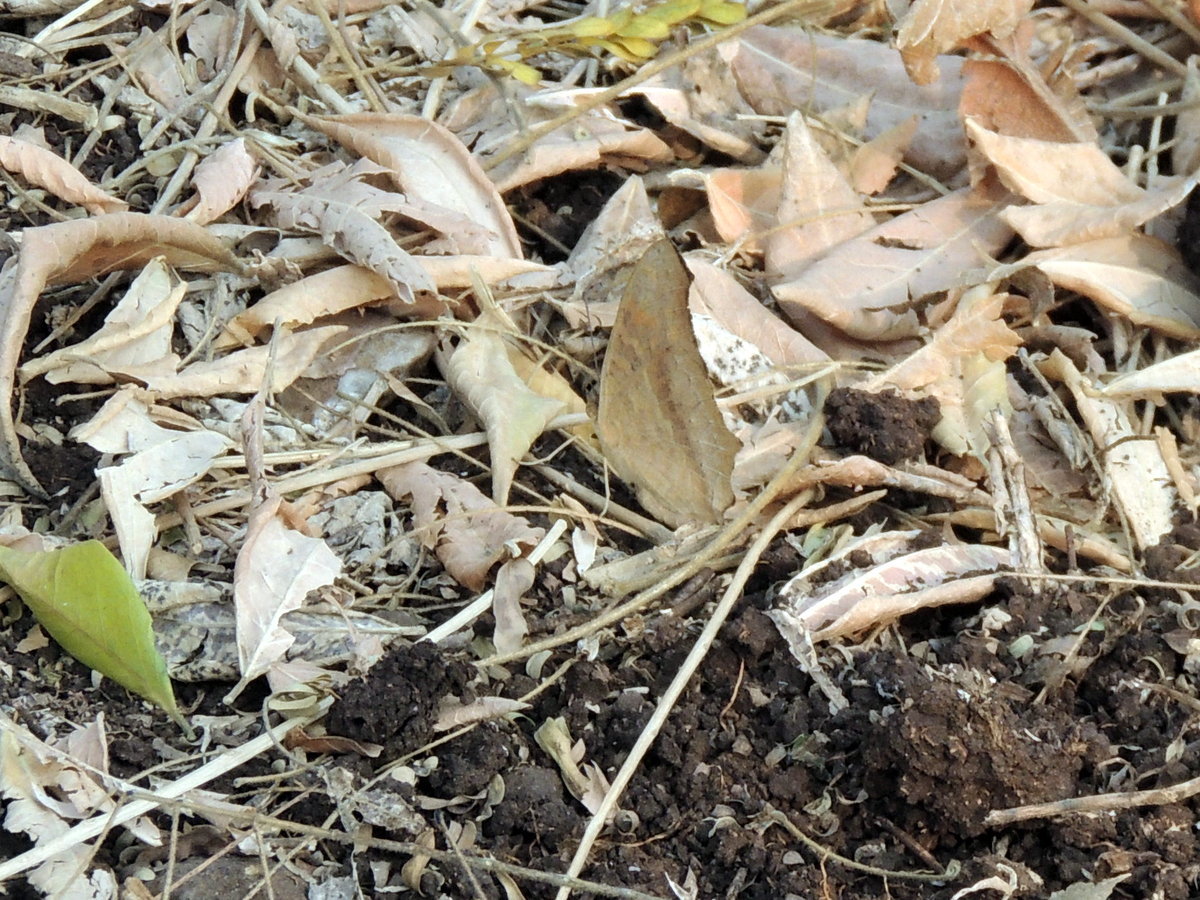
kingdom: Animalia
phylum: Arthropoda
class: Insecta
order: Lepidoptera
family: Nymphalidae
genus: Junonia
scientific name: Junonia lemonias
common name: Lemon pansy
